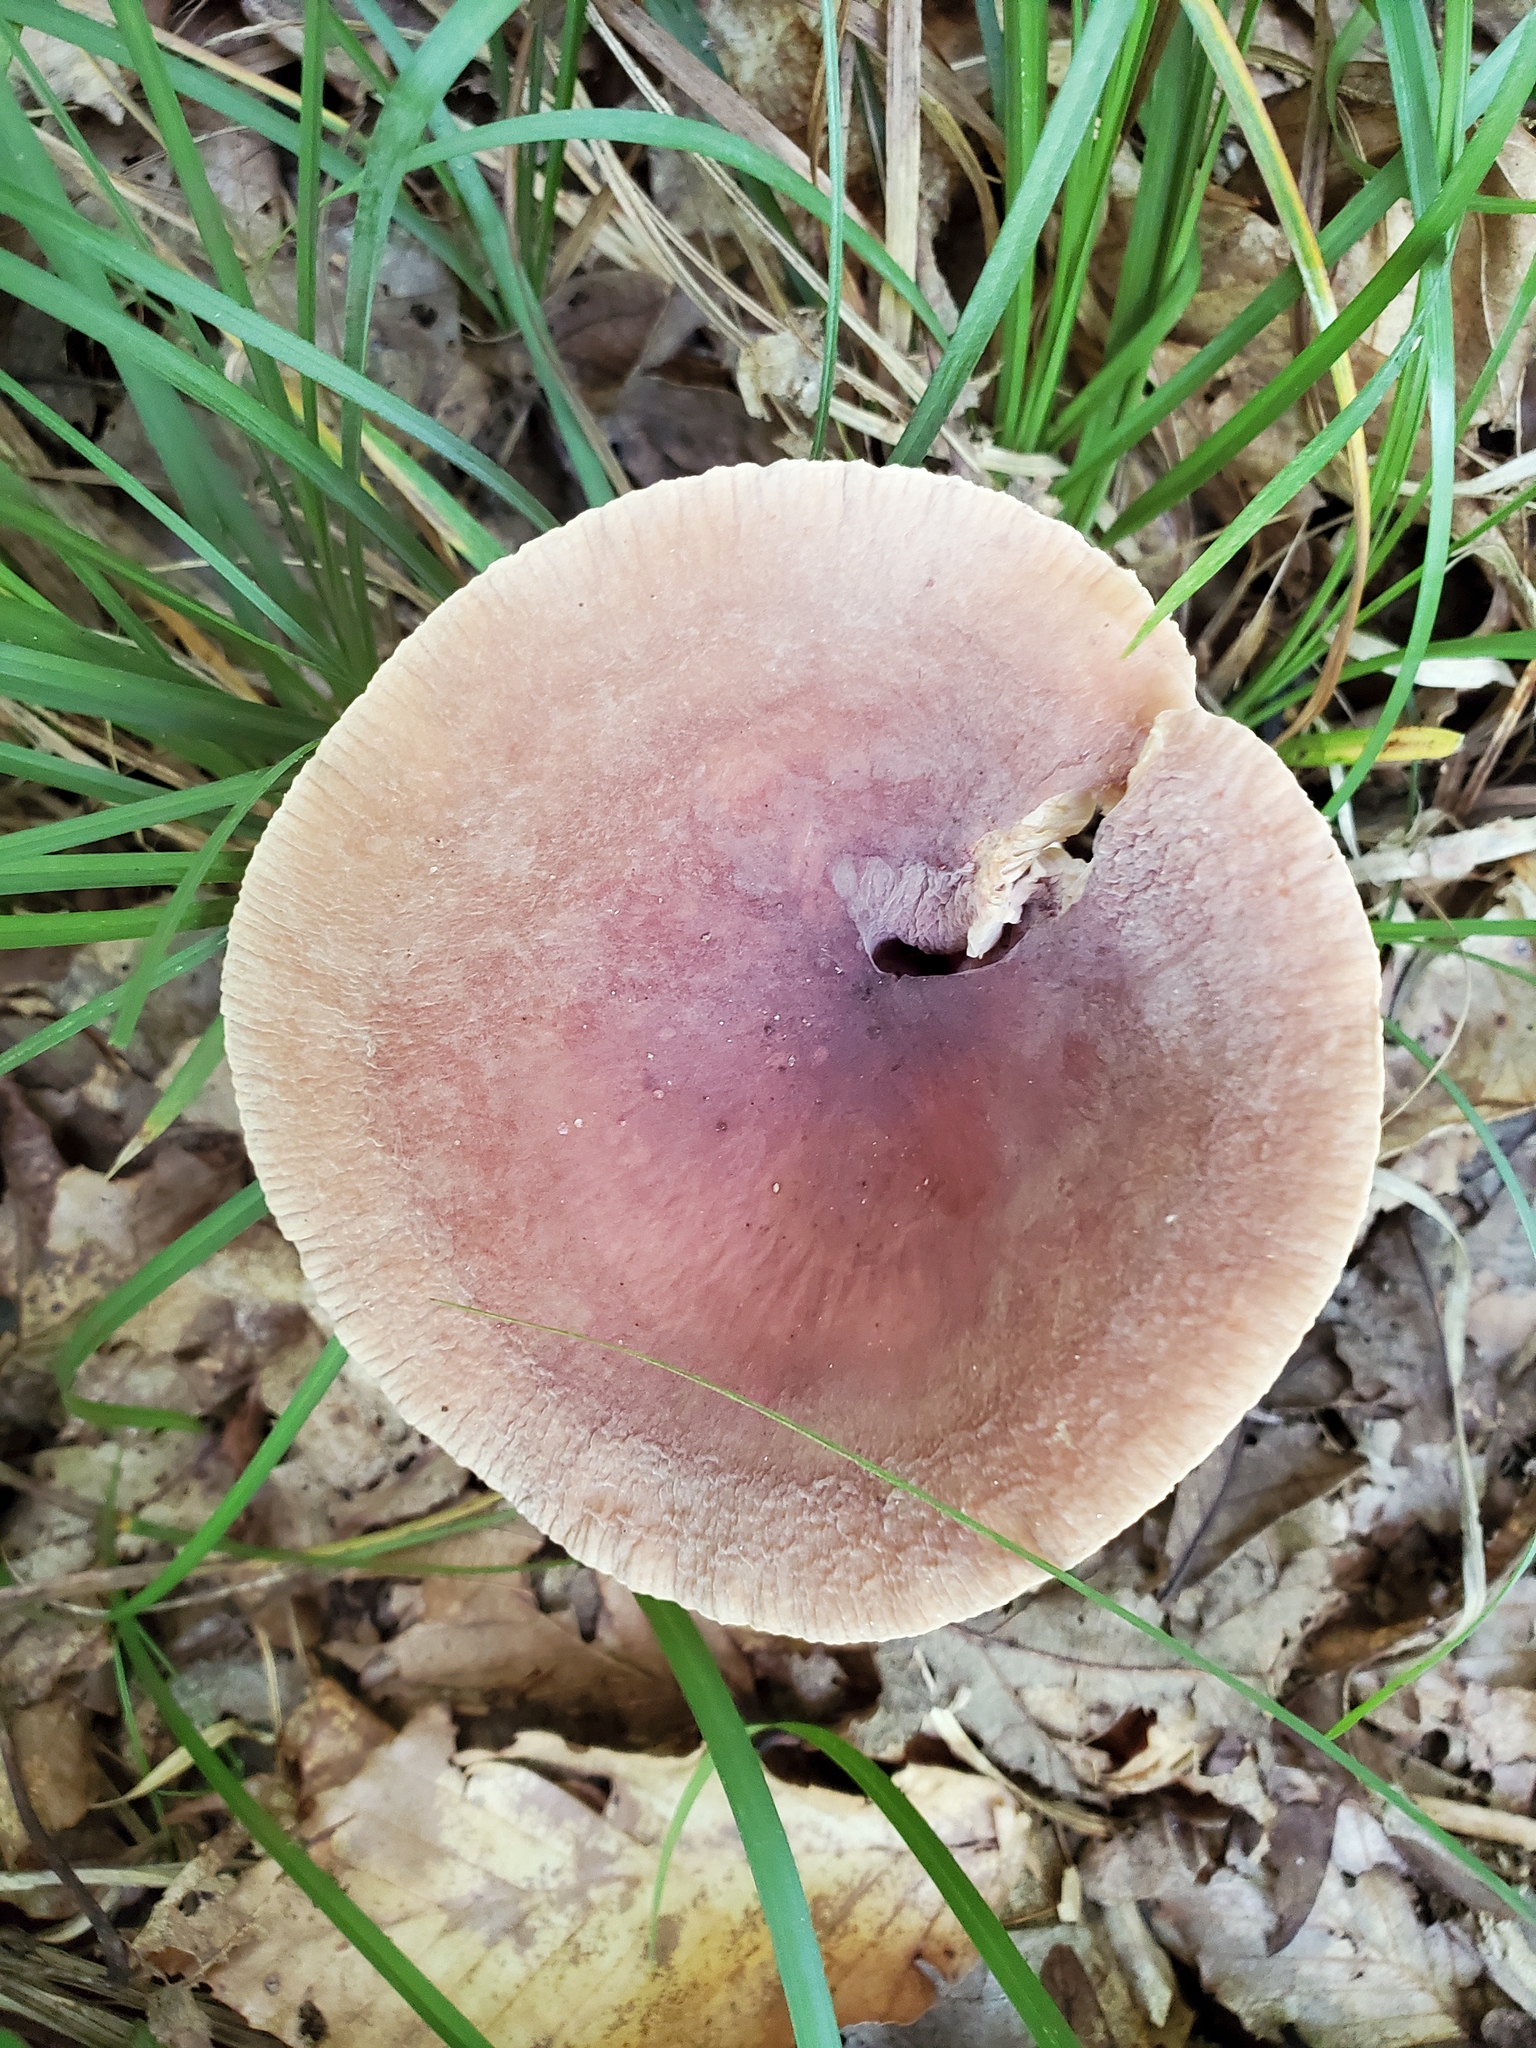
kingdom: Fungi
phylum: Basidiomycota
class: Agaricomycetes
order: Russulales
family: Russulaceae
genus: Lactarius
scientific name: Lactarius corrugis
